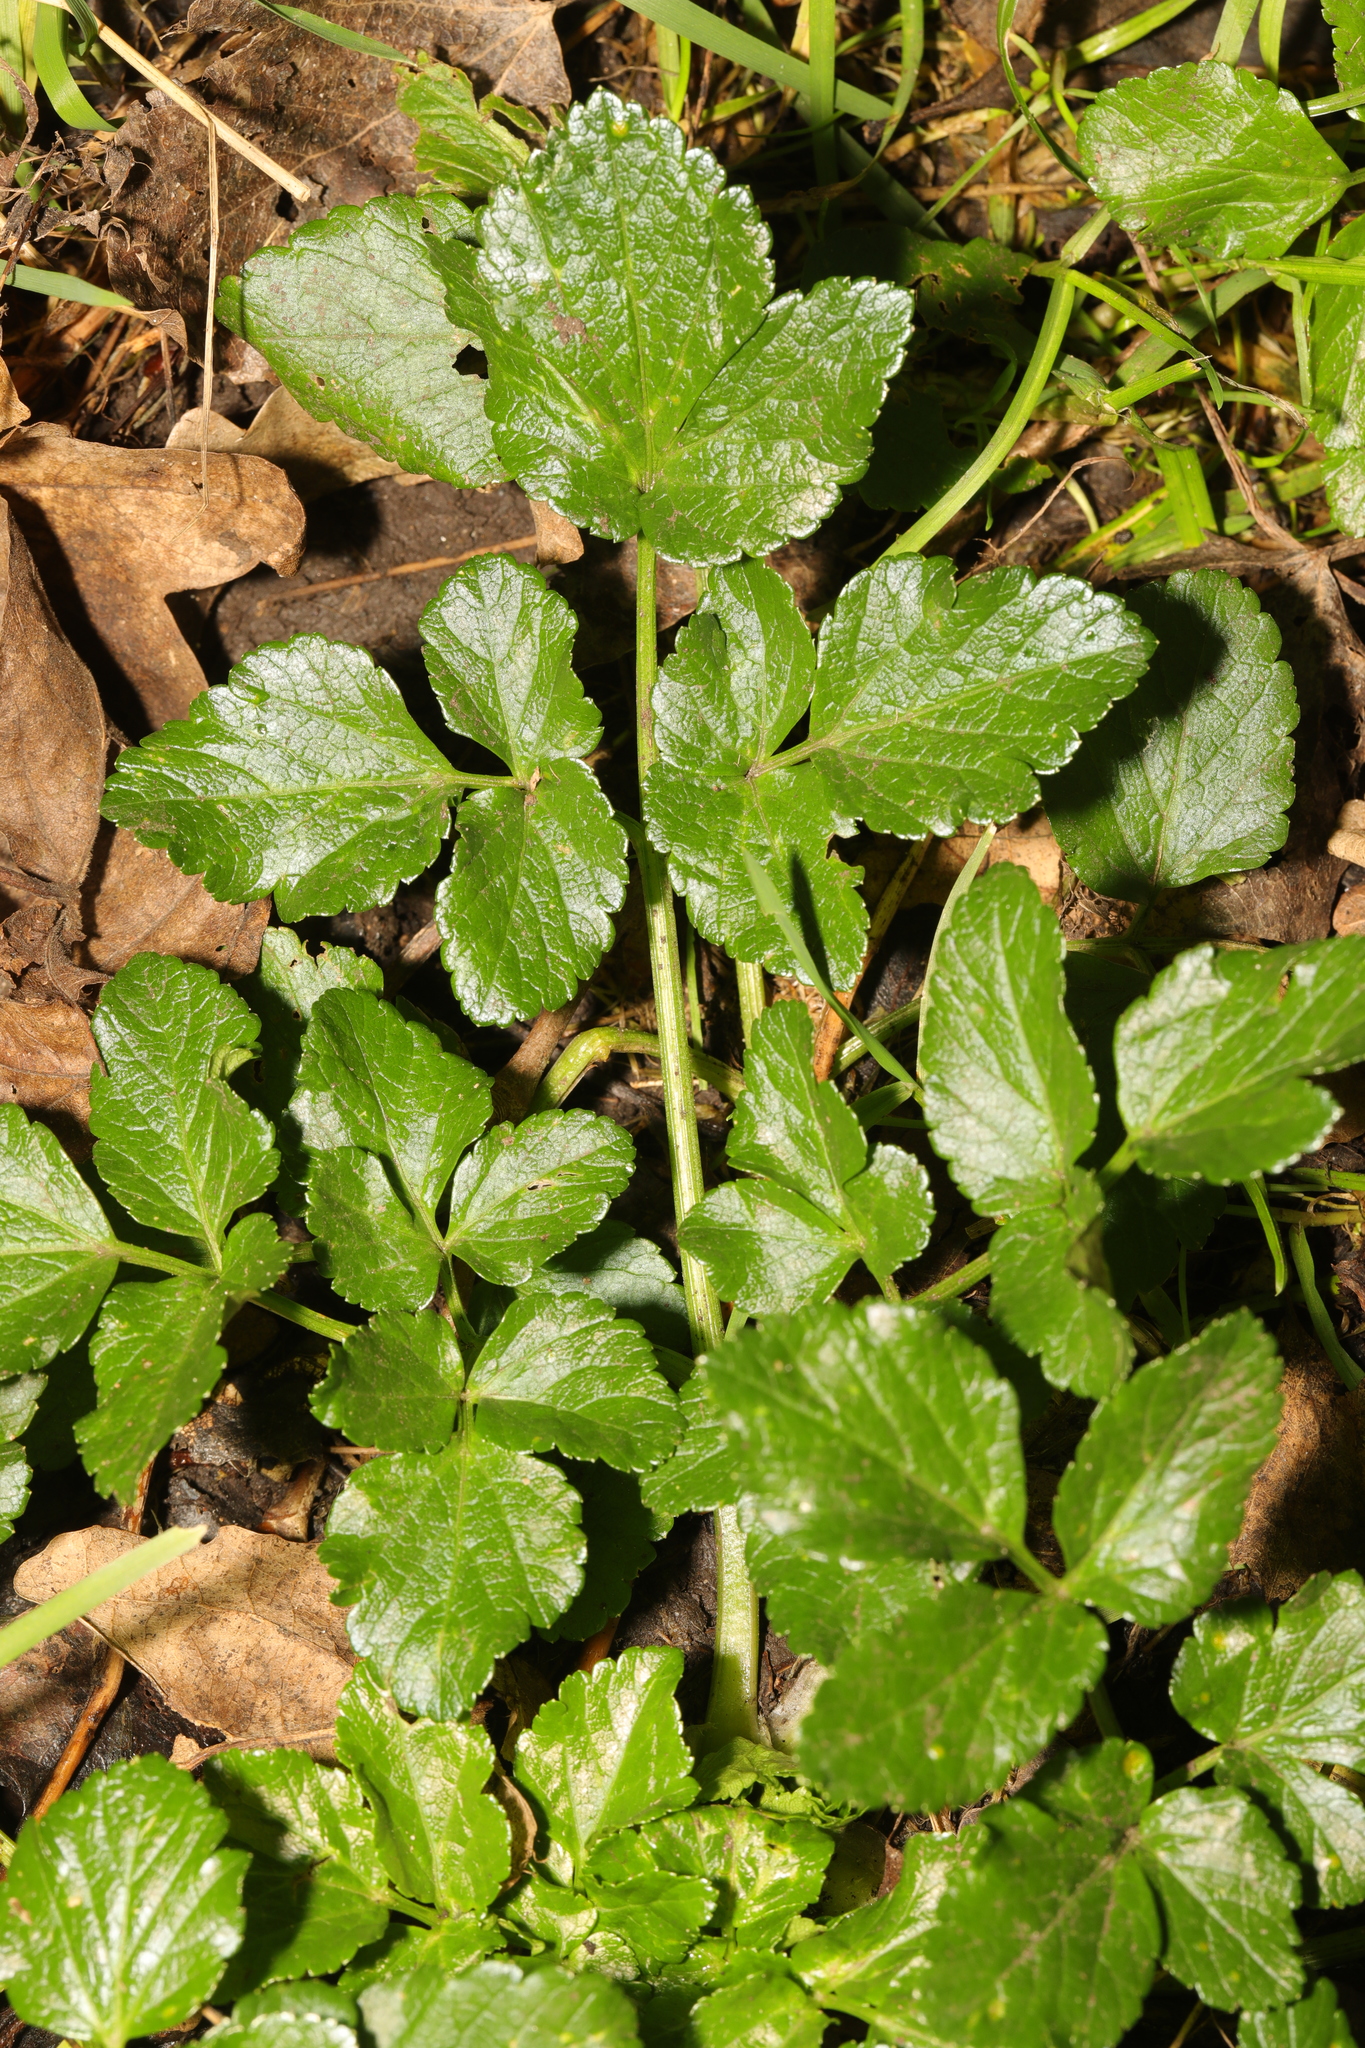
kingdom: Plantae
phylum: Tracheophyta
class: Magnoliopsida
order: Apiales
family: Apiaceae
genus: Smyrnium
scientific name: Smyrnium olusatrum
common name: Alexanders
